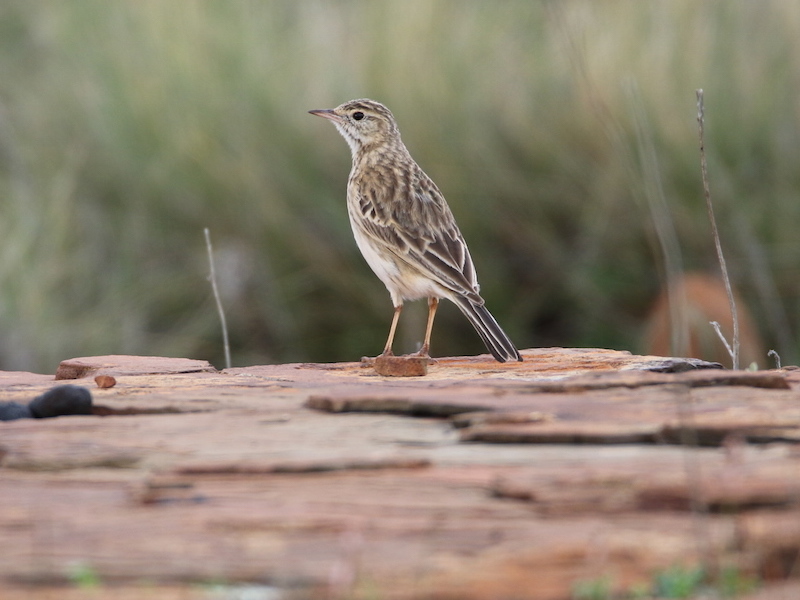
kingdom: Animalia
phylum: Chordata
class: Aves
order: Passeriformes
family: Motacillidae
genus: Anthus
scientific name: Anthus australis
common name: Australian pipit
